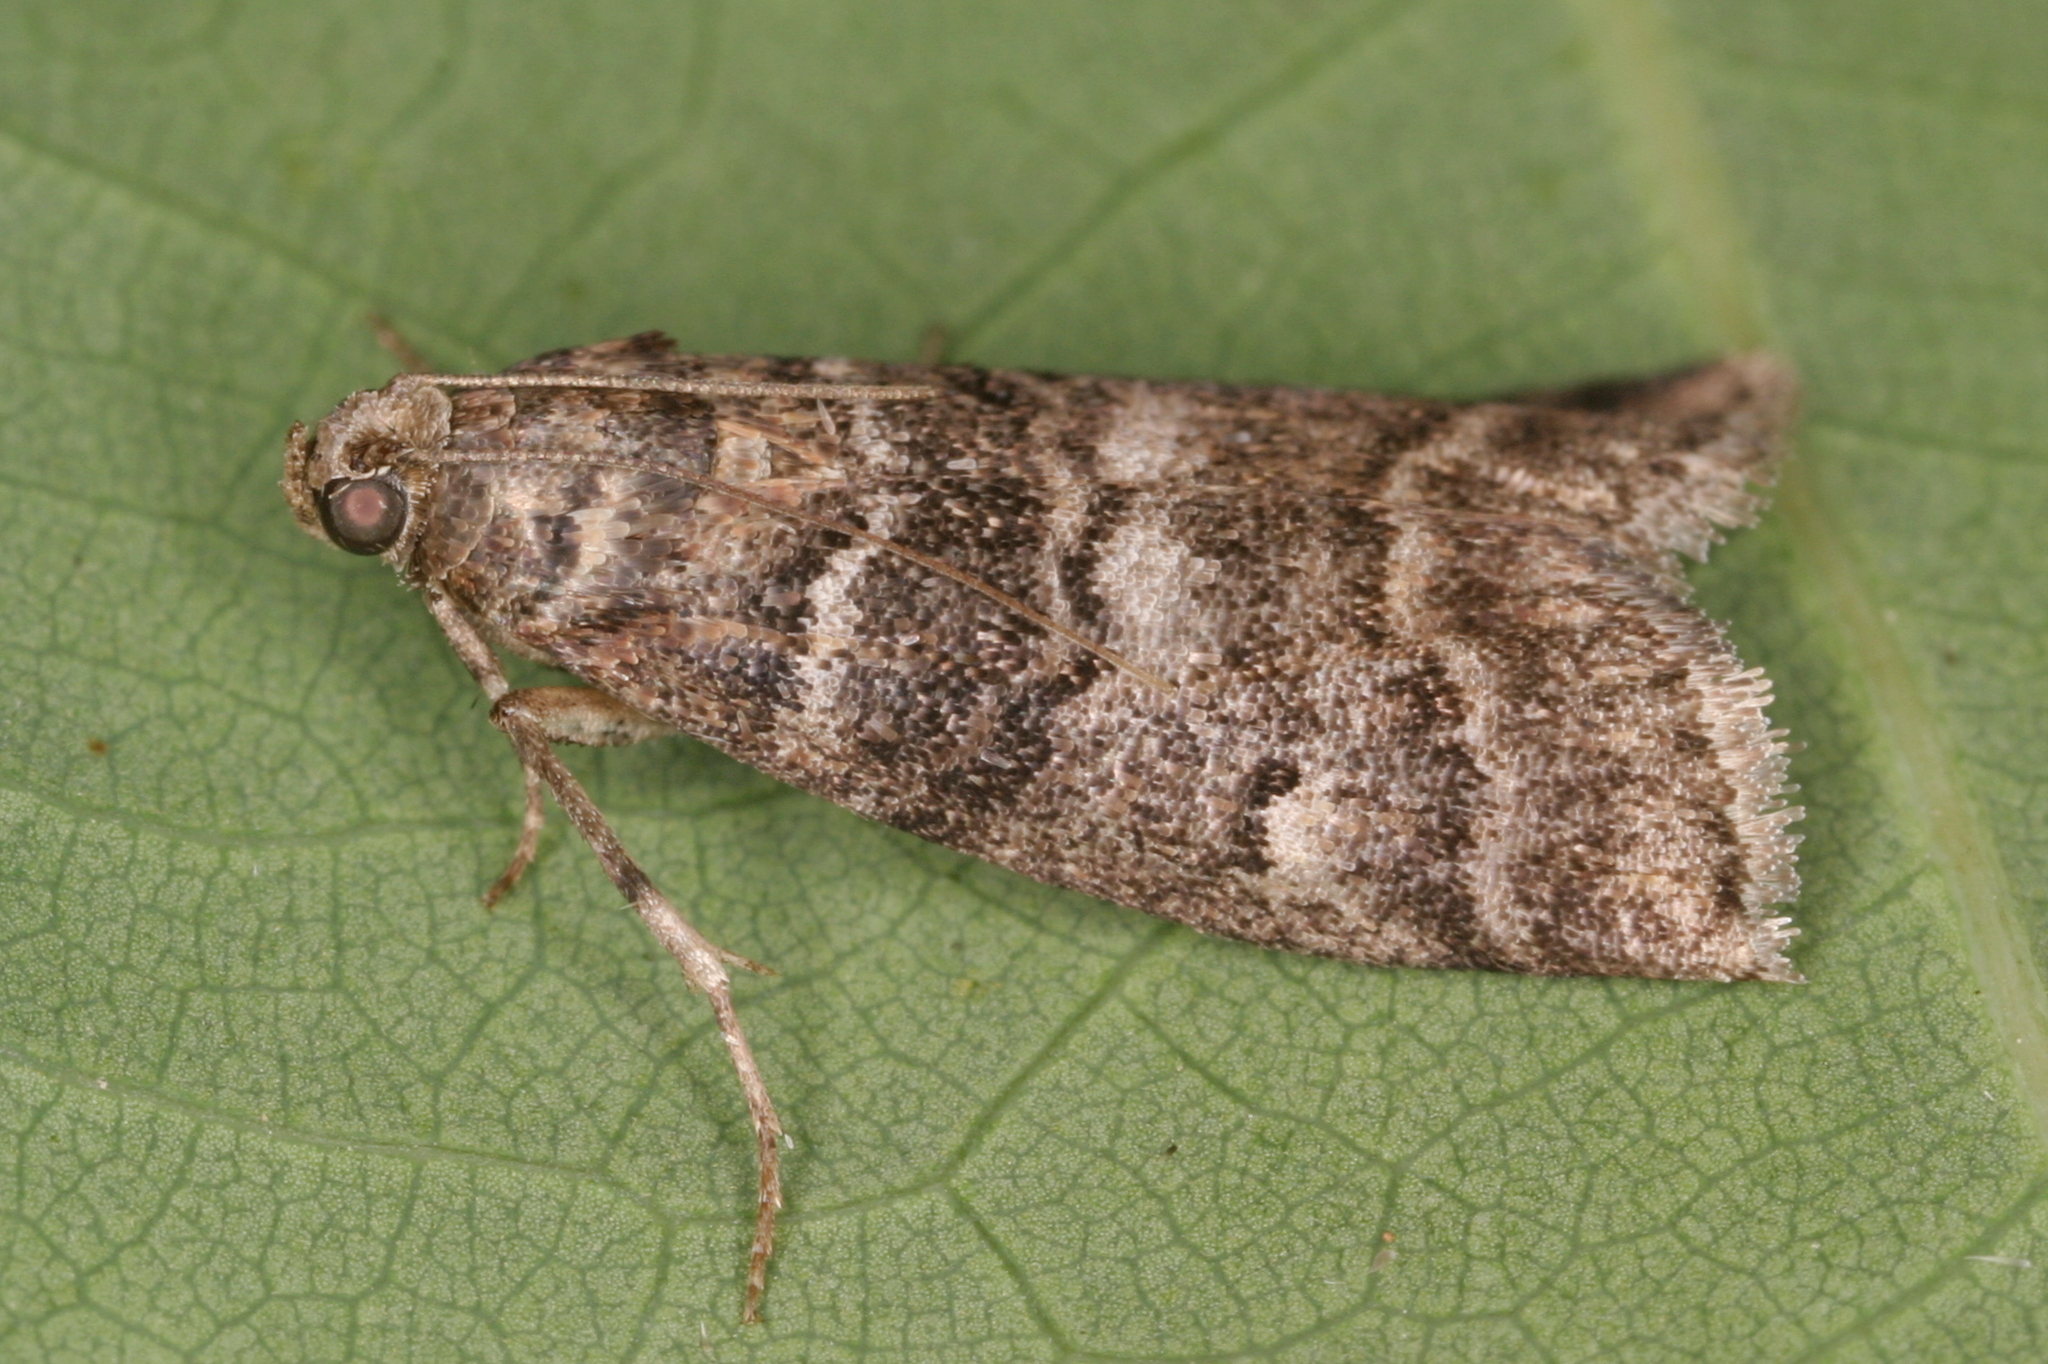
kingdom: Animalia
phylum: Arthropoda
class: Insecta
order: Lepidoptera
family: Pyralidae
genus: Acrobasis
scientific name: Acrobasis obtusella
